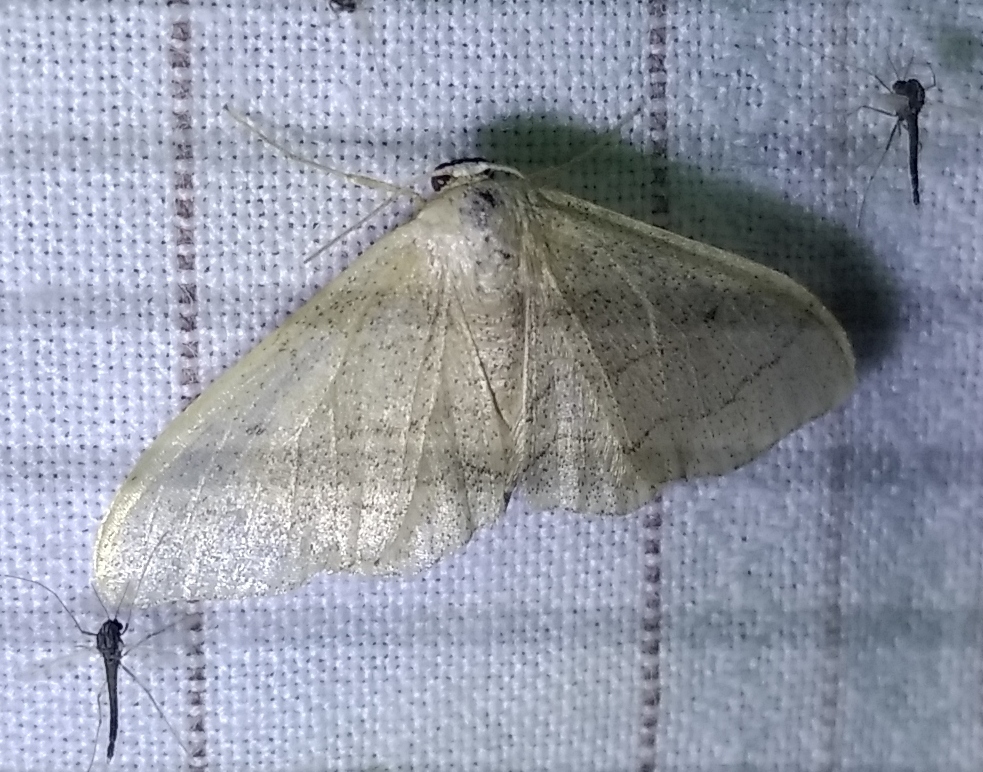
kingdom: Animalia
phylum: Arthropoda
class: Insecta
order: Lepidoptera
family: Geometridae
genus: Idaea
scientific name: Idaea straminata
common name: Plain wave
